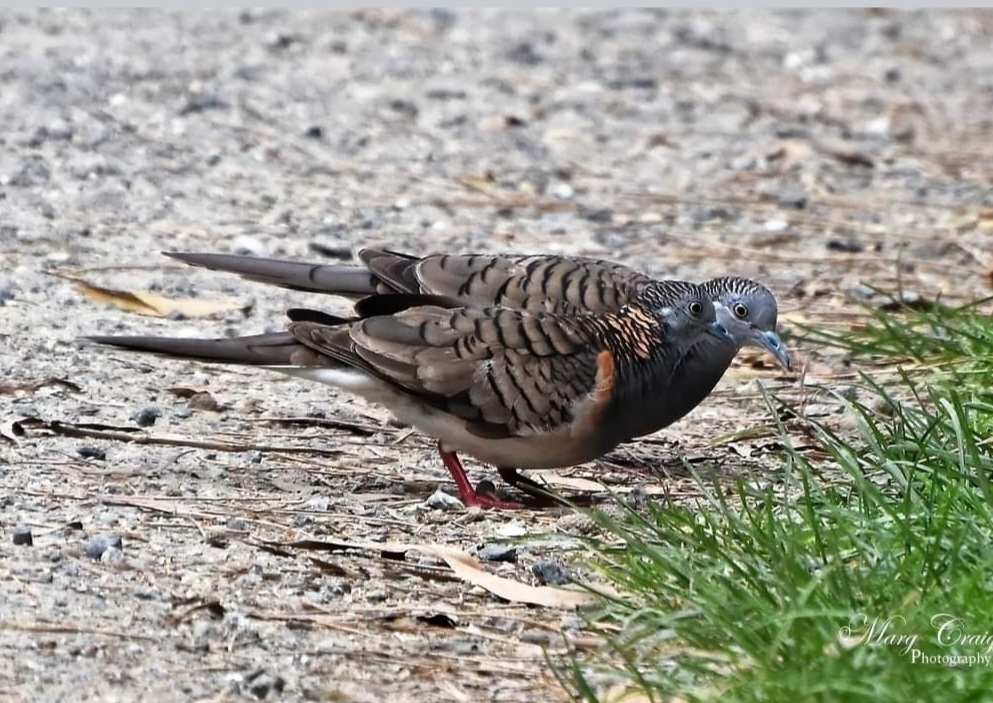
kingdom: Animalia
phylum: Chordata
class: Aves
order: Columbiformes
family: Columbidae
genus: Geopelia
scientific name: Geopelia humeralis
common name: Bar-shouldered dove
